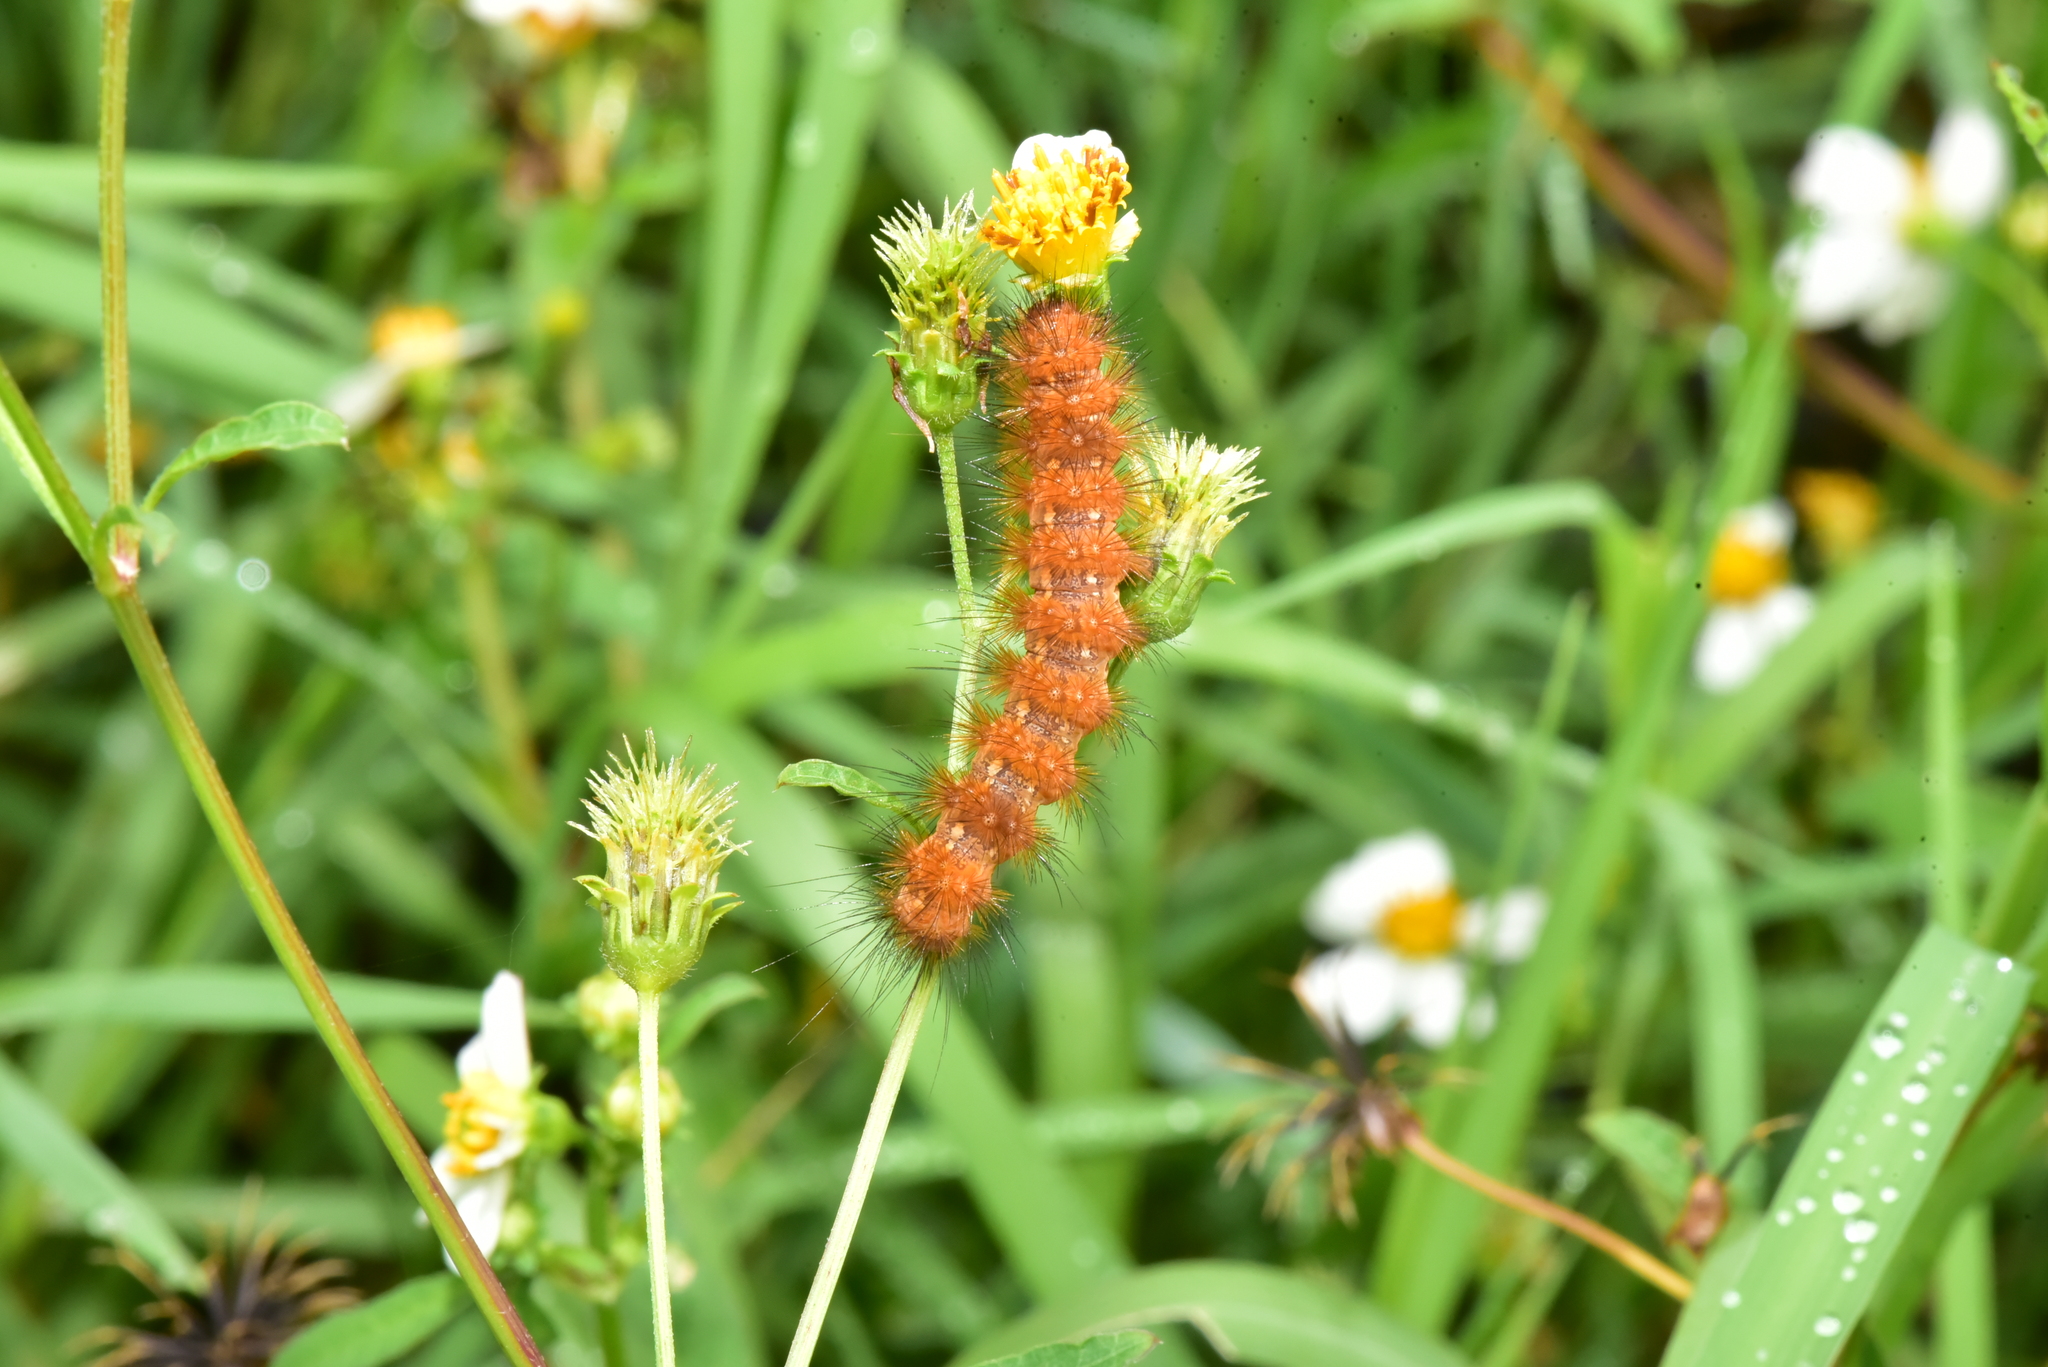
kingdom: Animalia
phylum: Arthropoda
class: Insecta
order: Lepidoptera
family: Erebidae
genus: Spilarctia
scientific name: Spilarctia subcarnea
